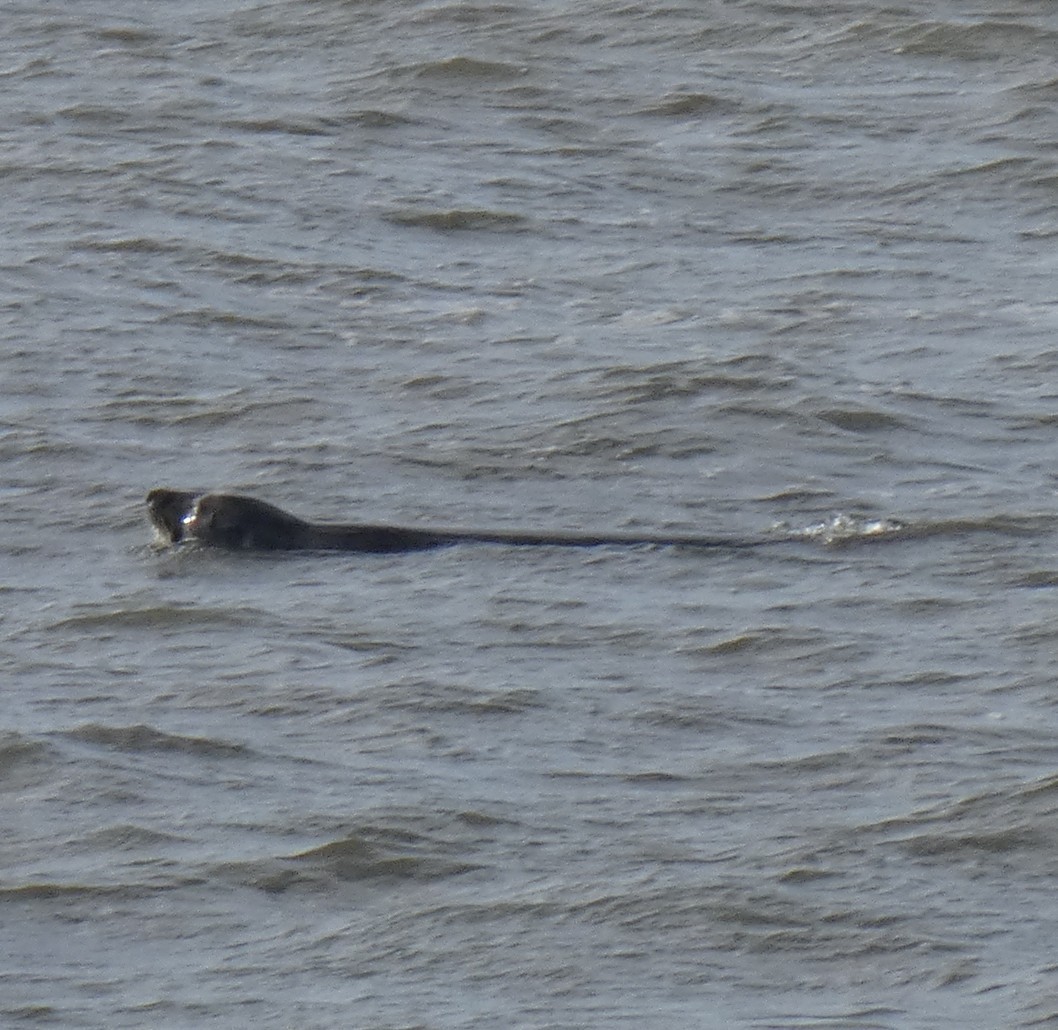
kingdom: Animalia
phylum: Chordata
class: Mammalia
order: Carnivora
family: Phocidae
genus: Halichoerus
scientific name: Halichoerus grypus
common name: Grey seal
